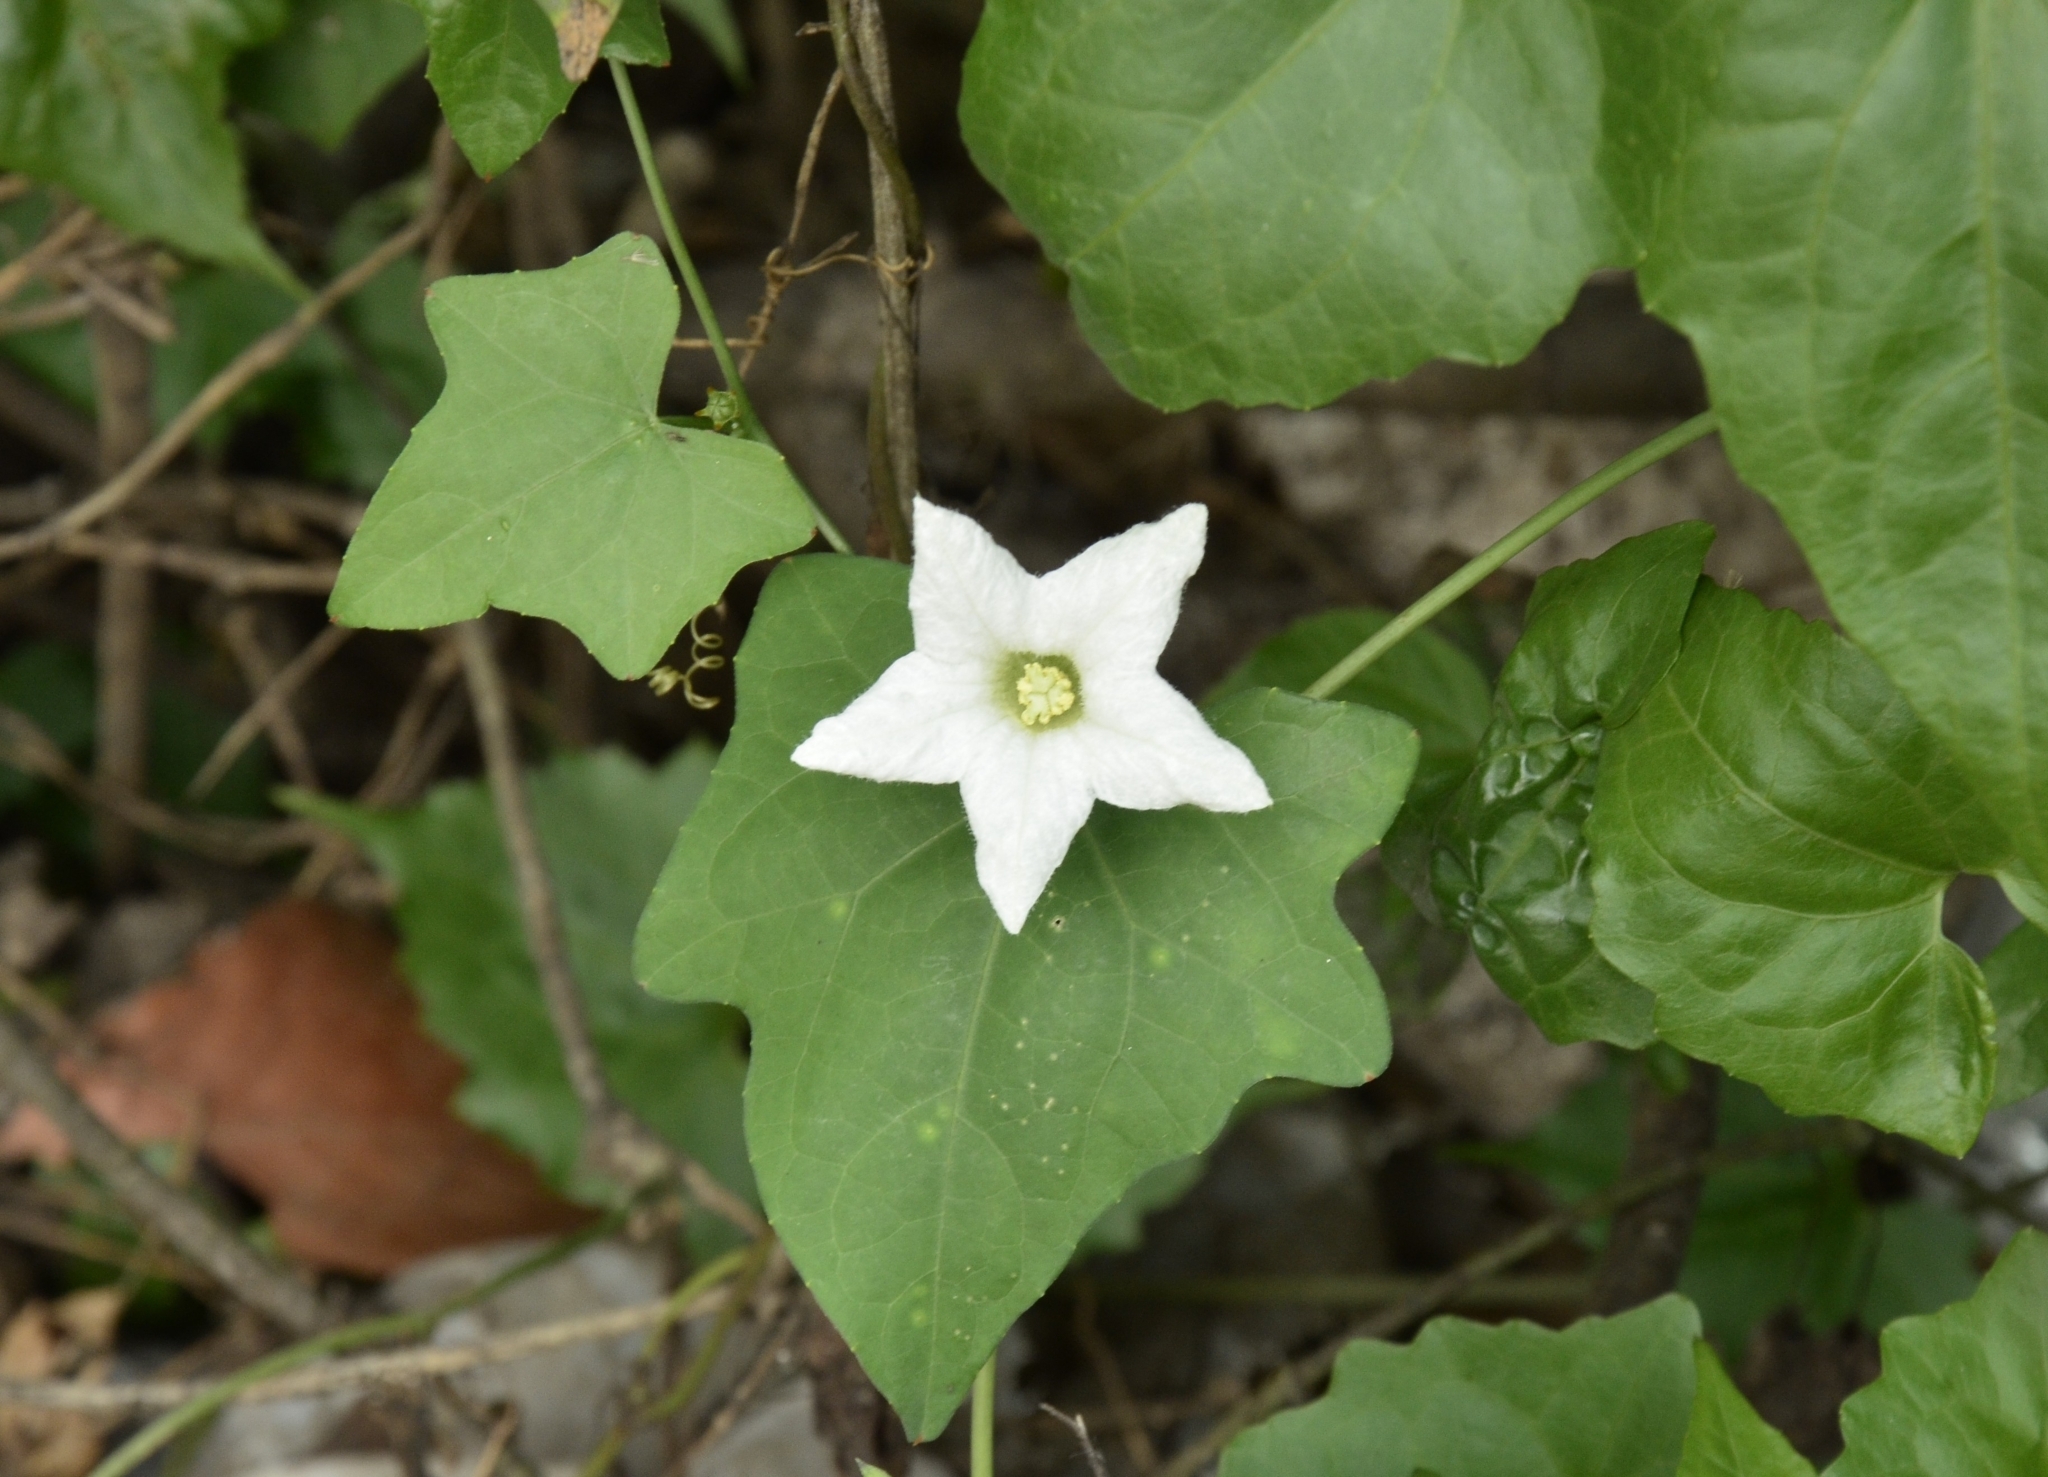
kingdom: Plantae
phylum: Tracheophyta
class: Magnoliopsida
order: Cucurbitales
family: Cucurbitaceae
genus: Coccinia
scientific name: Coccinia grandis
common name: Ivy gourd
